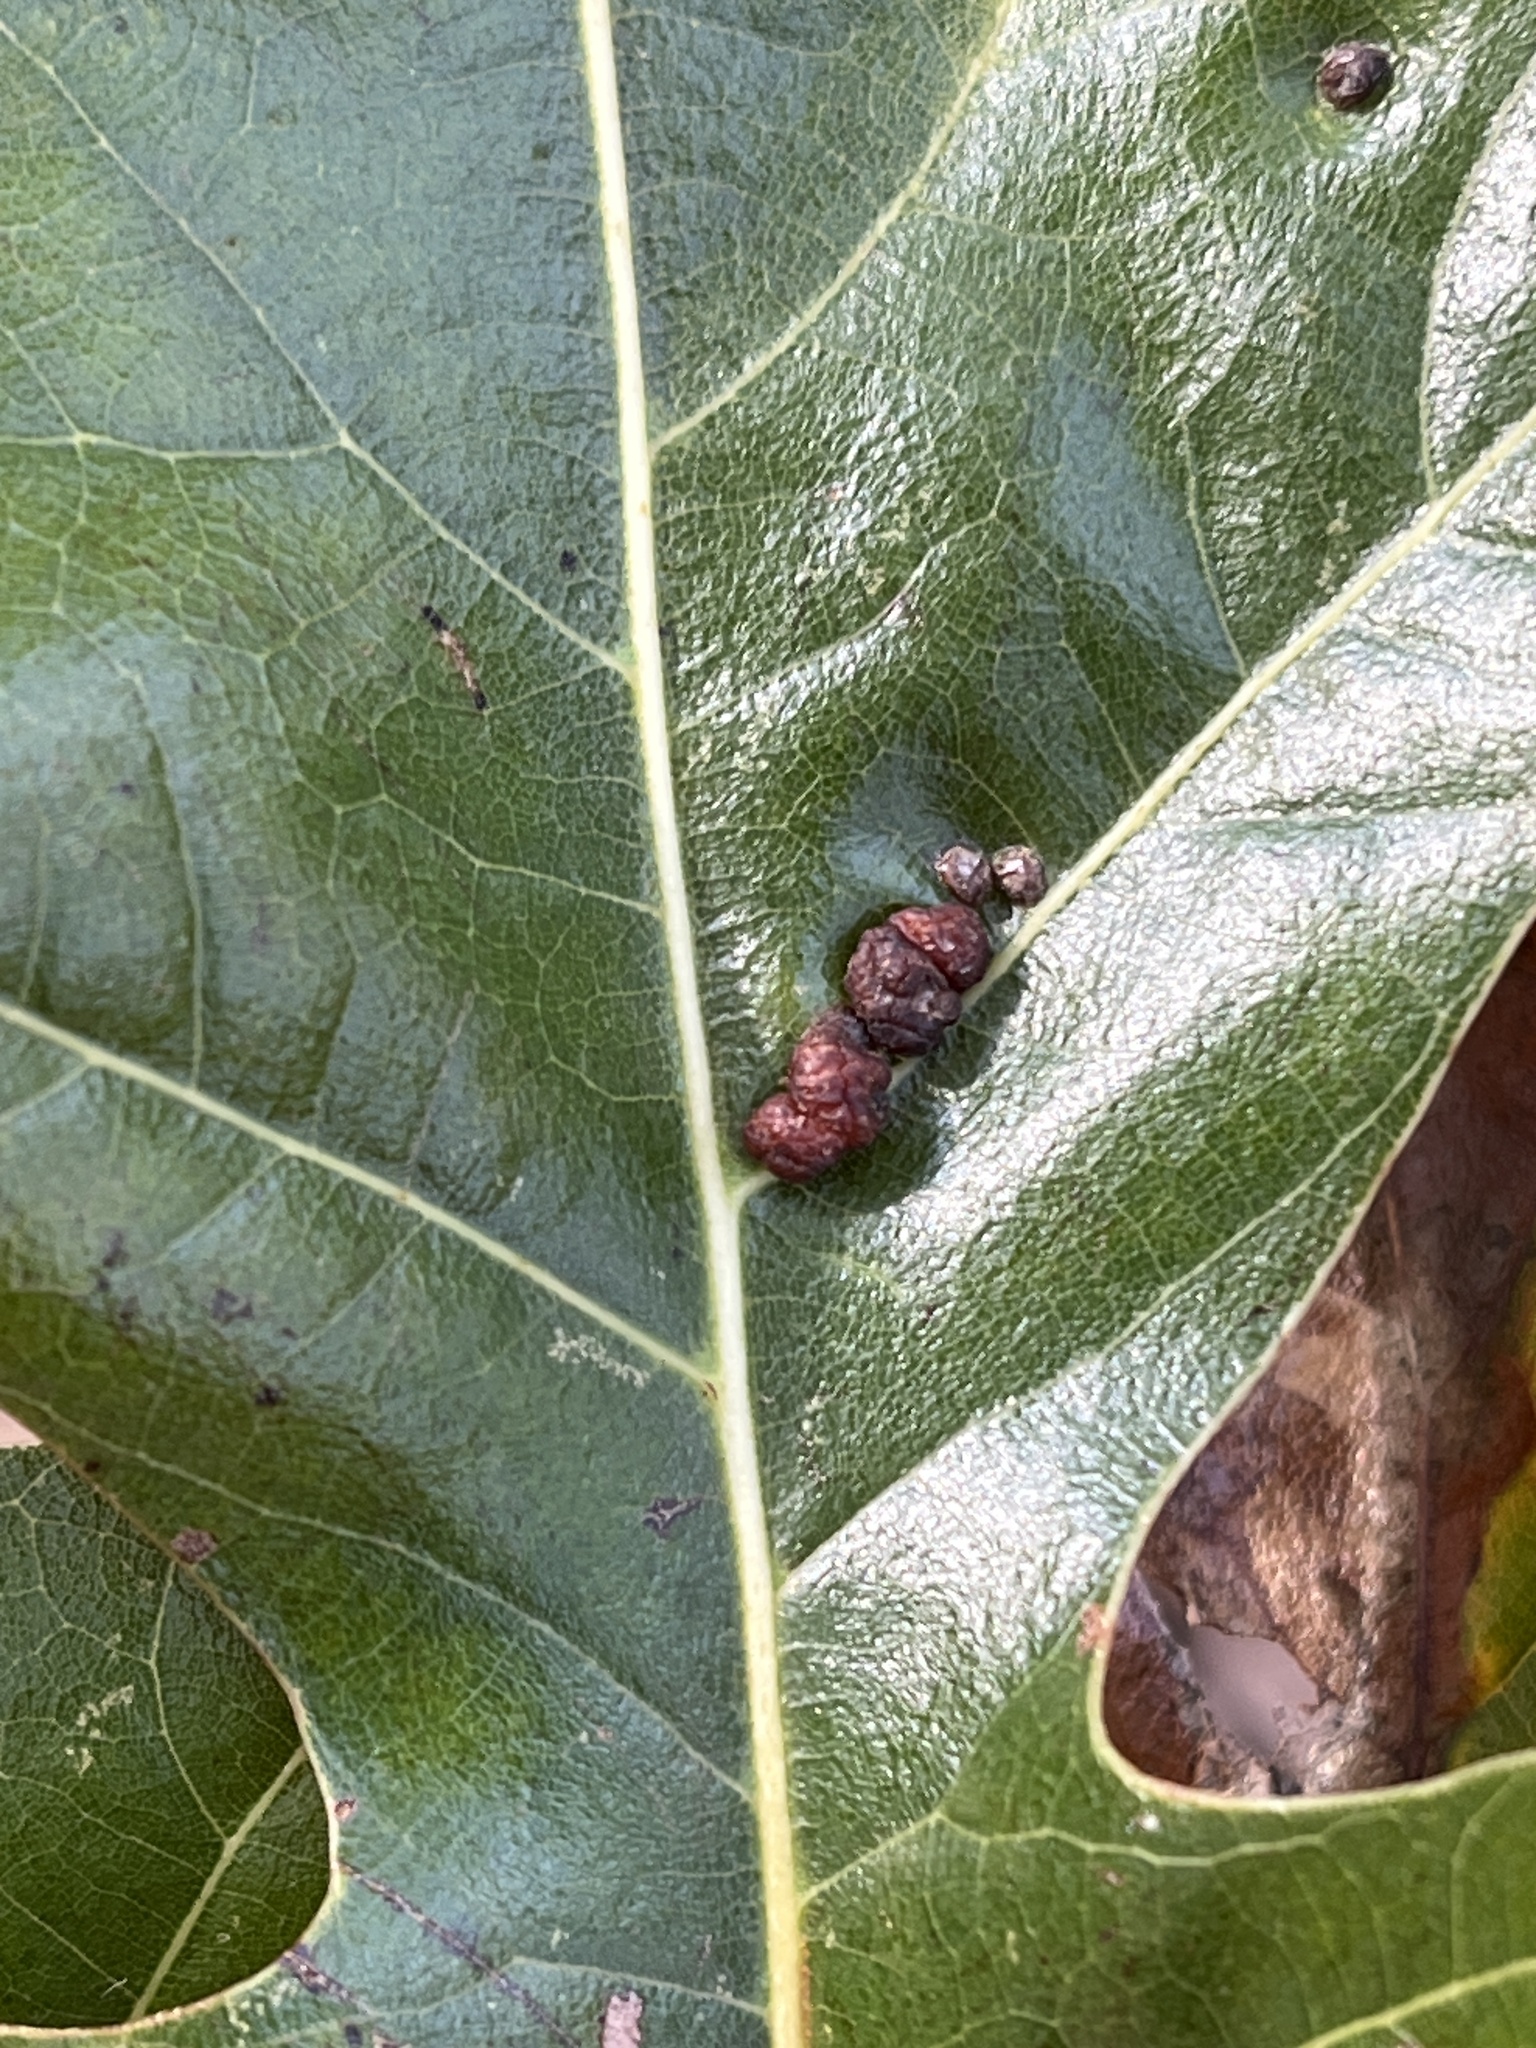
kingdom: Animalia
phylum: Arthropoda
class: Insecta
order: Diptera
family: Cecidomyiidae
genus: Polystepha
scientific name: Polystepha pilulae
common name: Oak leaf gall midge
